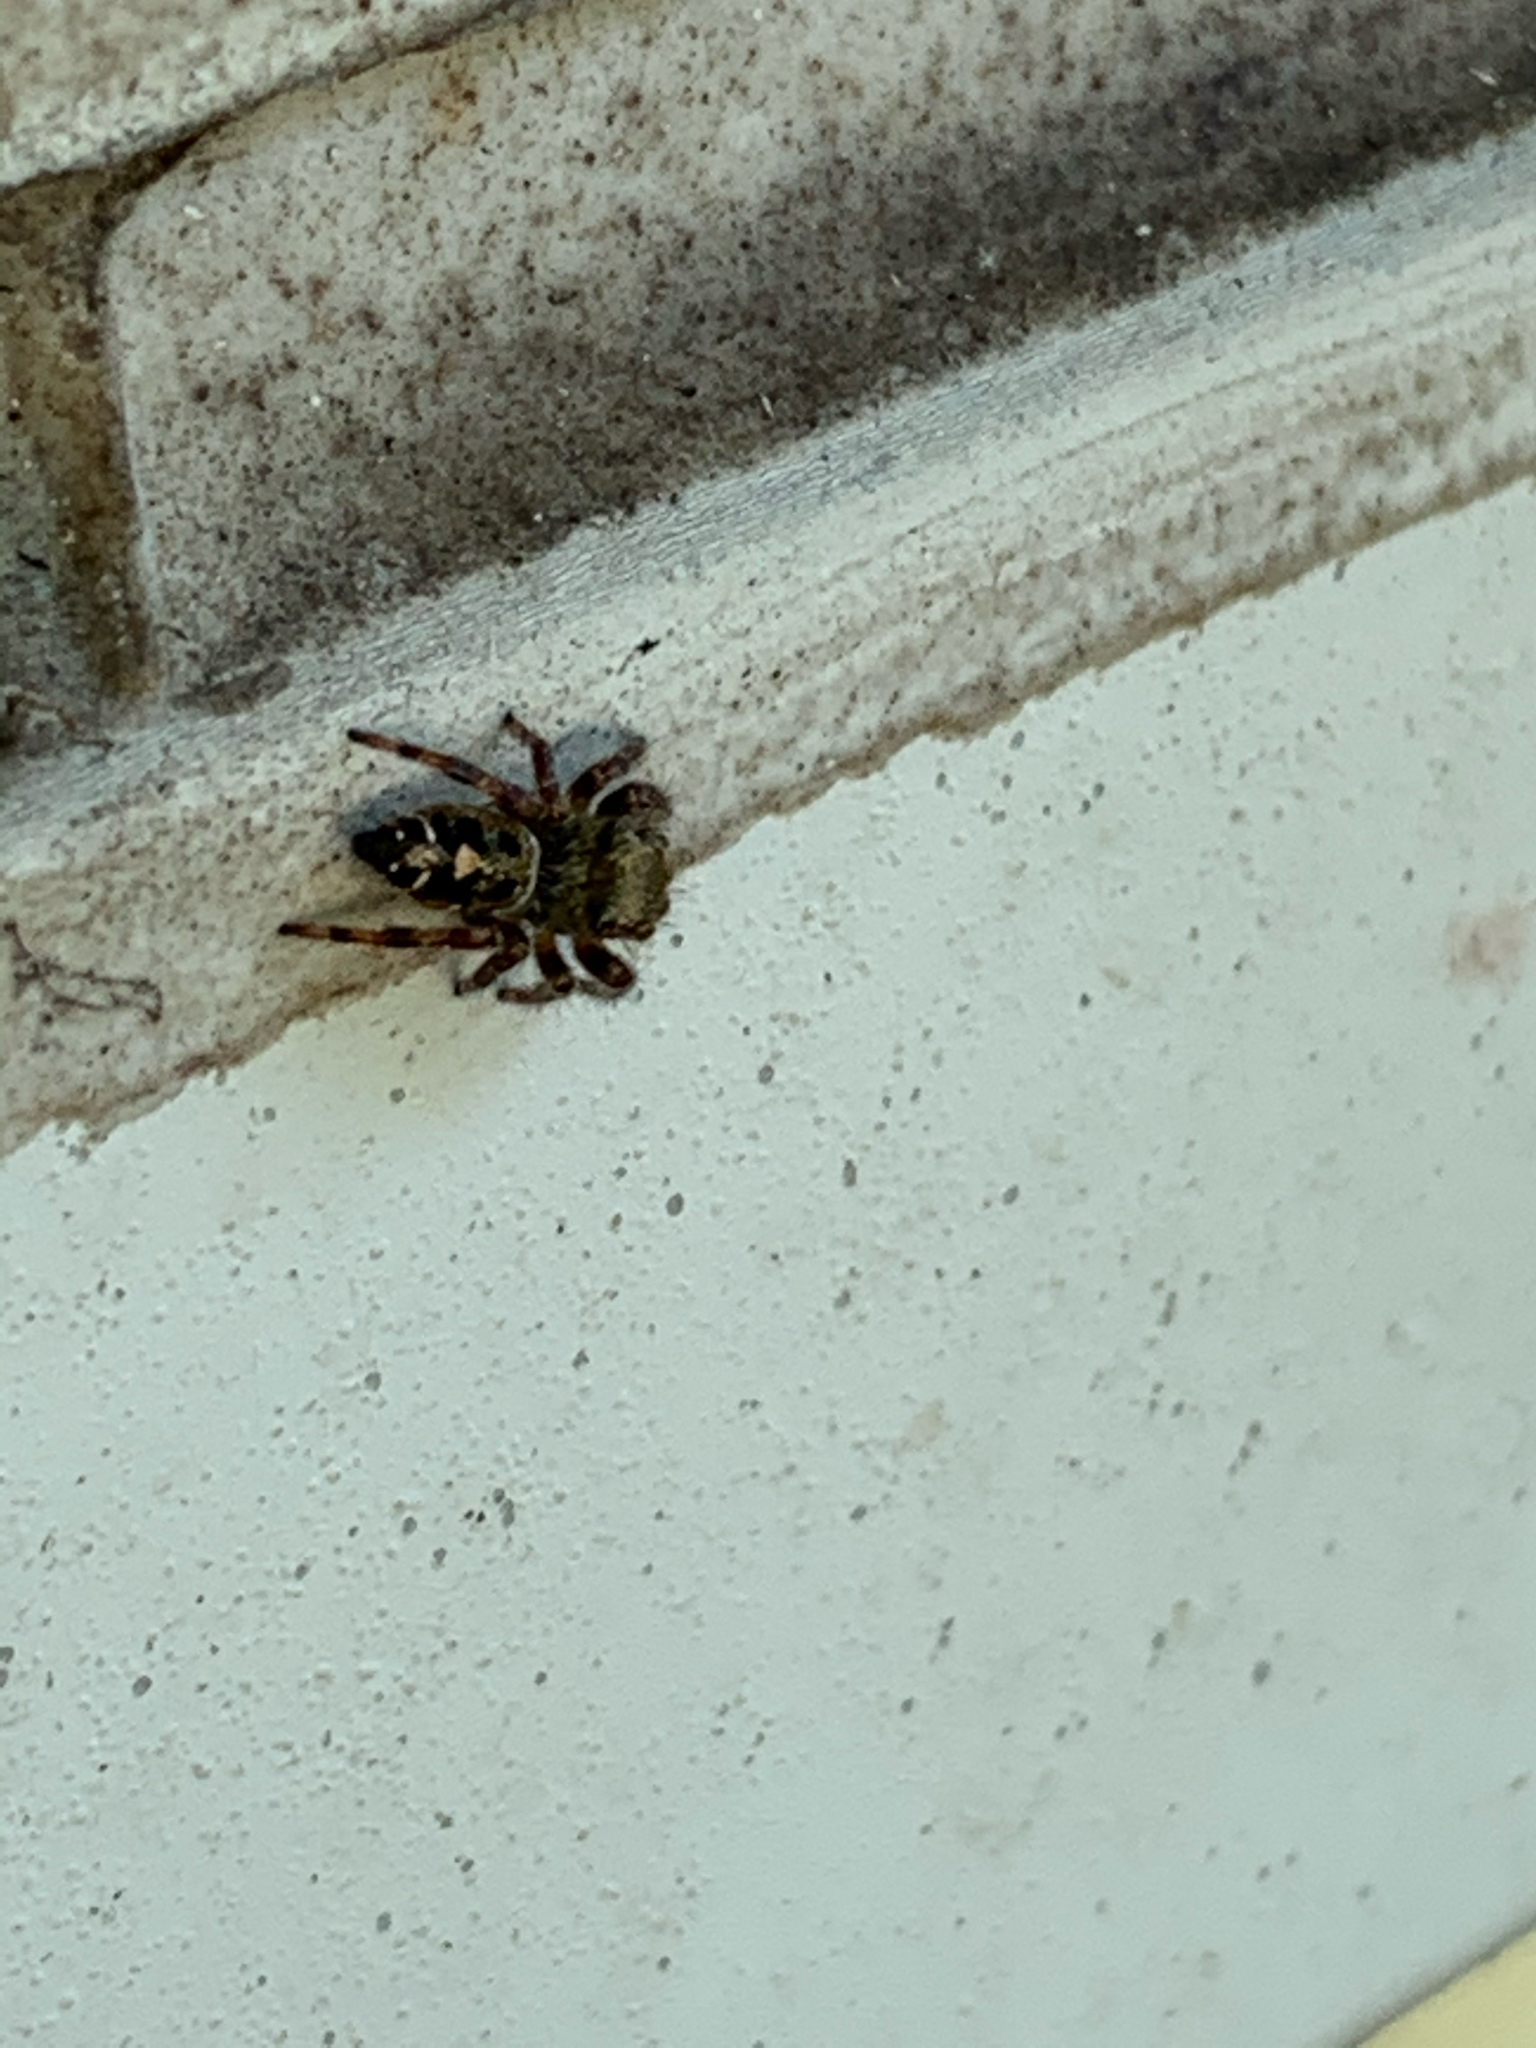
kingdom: Animalia
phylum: Arthropoda
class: Arachnida
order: Araneae
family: Salticidae
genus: Phidippus
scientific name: Phidippus audax
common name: Bold jumper
